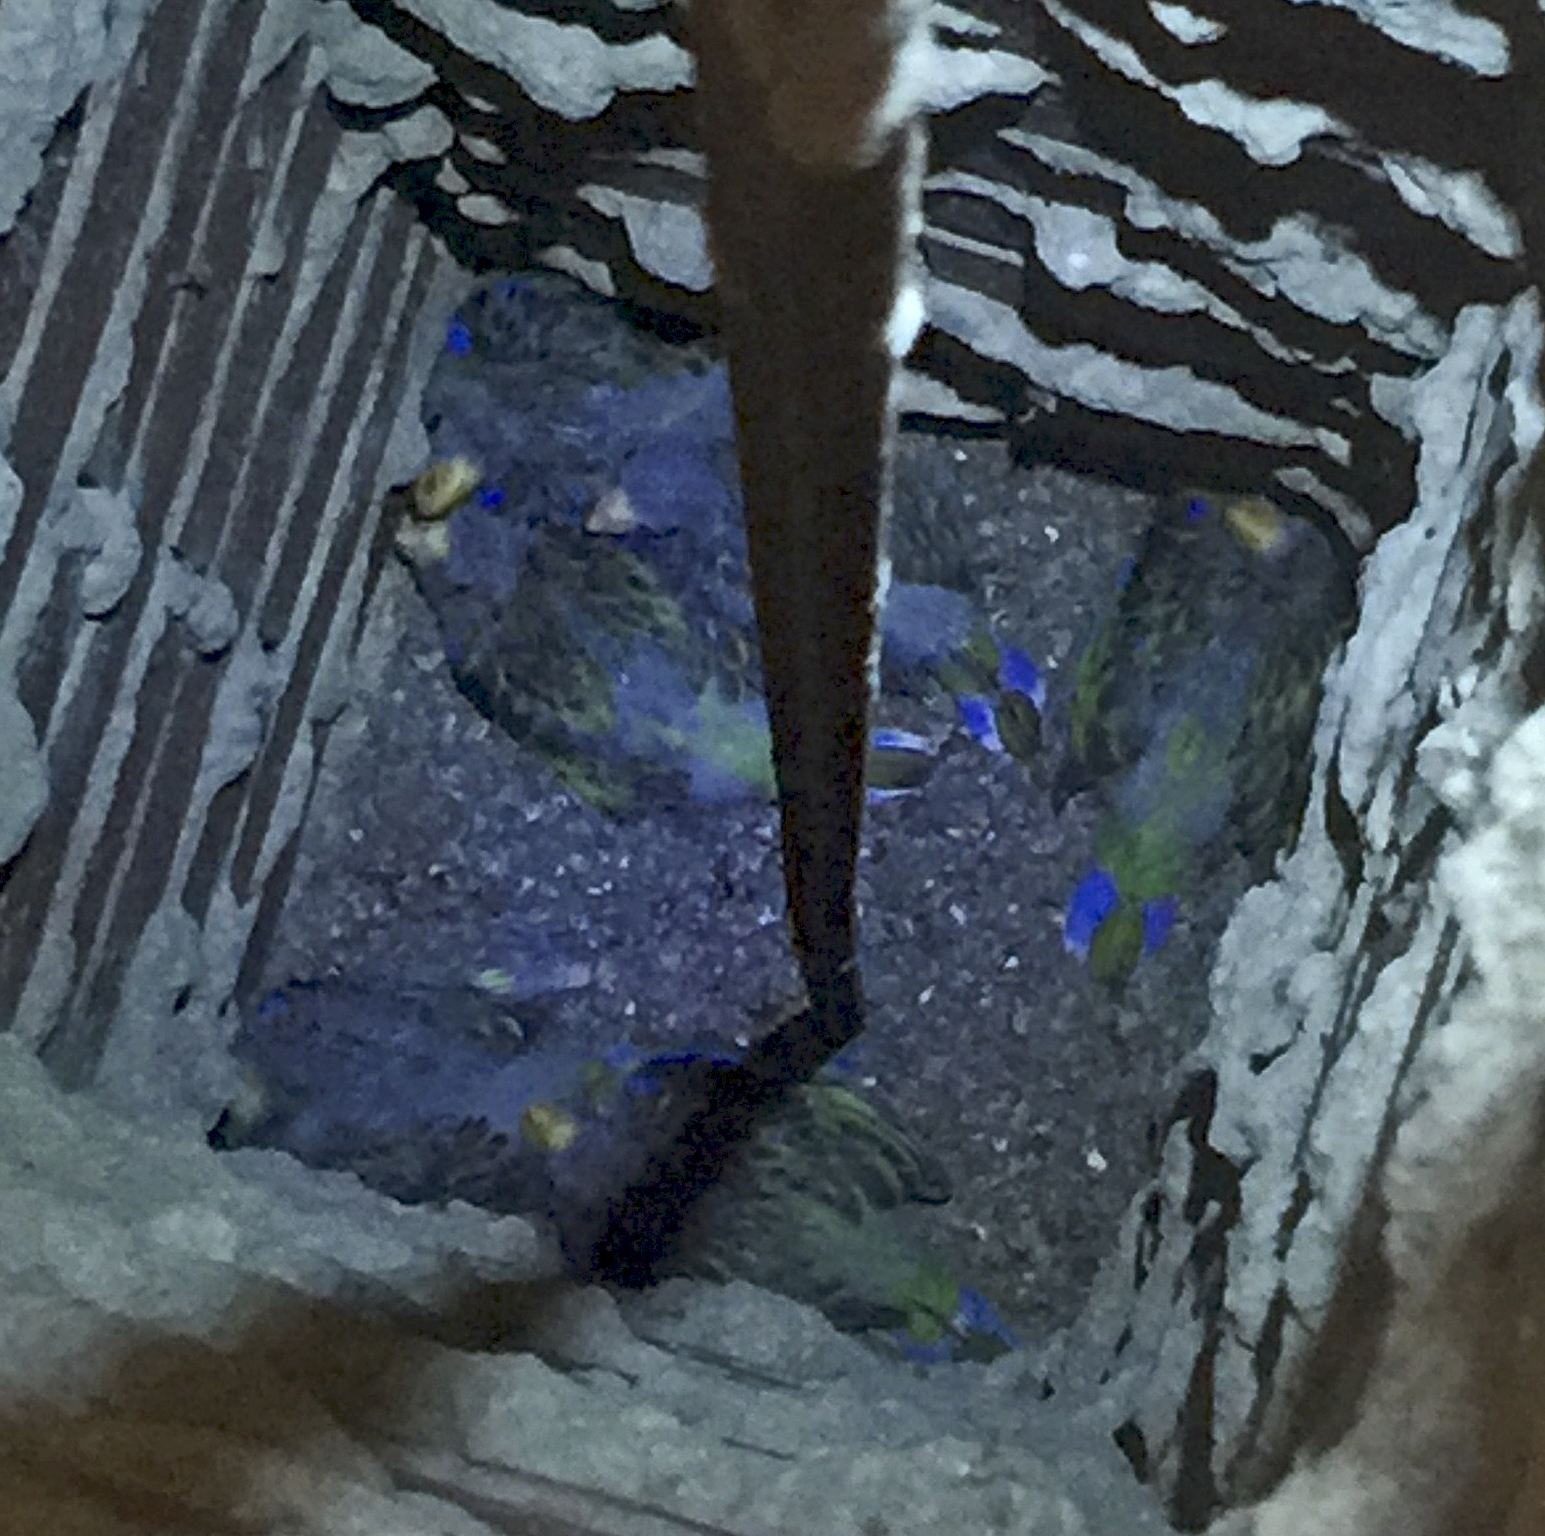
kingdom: Animalia
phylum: Chordata
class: Aves
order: Psittaciformes
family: Psittacidae
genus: Platycercus
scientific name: Platycercus eximius
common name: Eastern rosella
